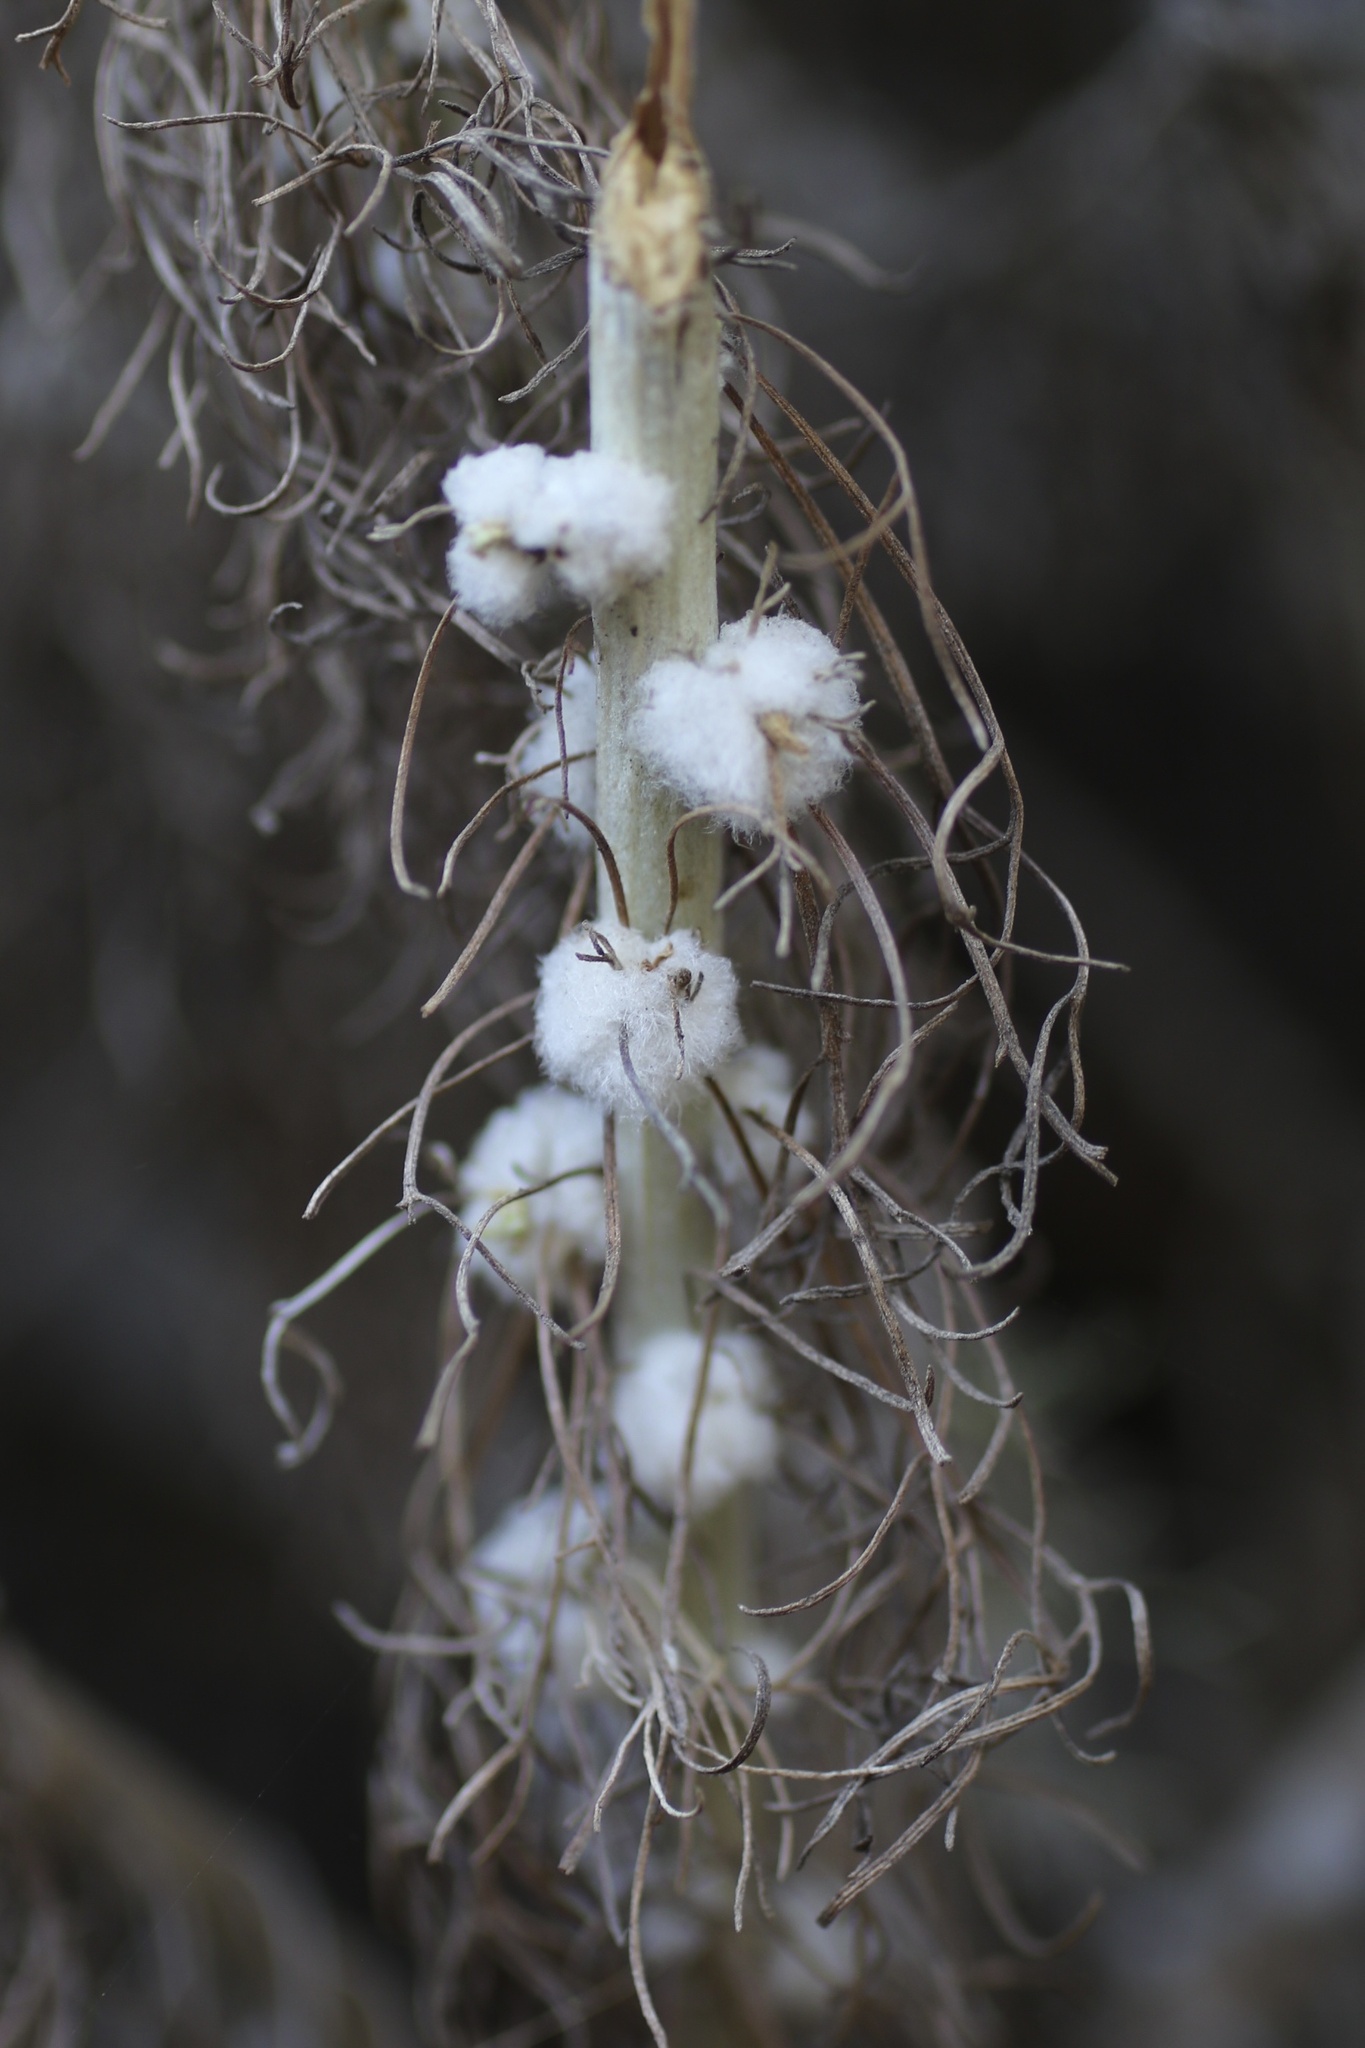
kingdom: Animalia
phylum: Arthropoda
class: Insecta
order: Diptera
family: Cecidomyiidae
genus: Rhopalomyia
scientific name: Rhopalomyia floccosa
